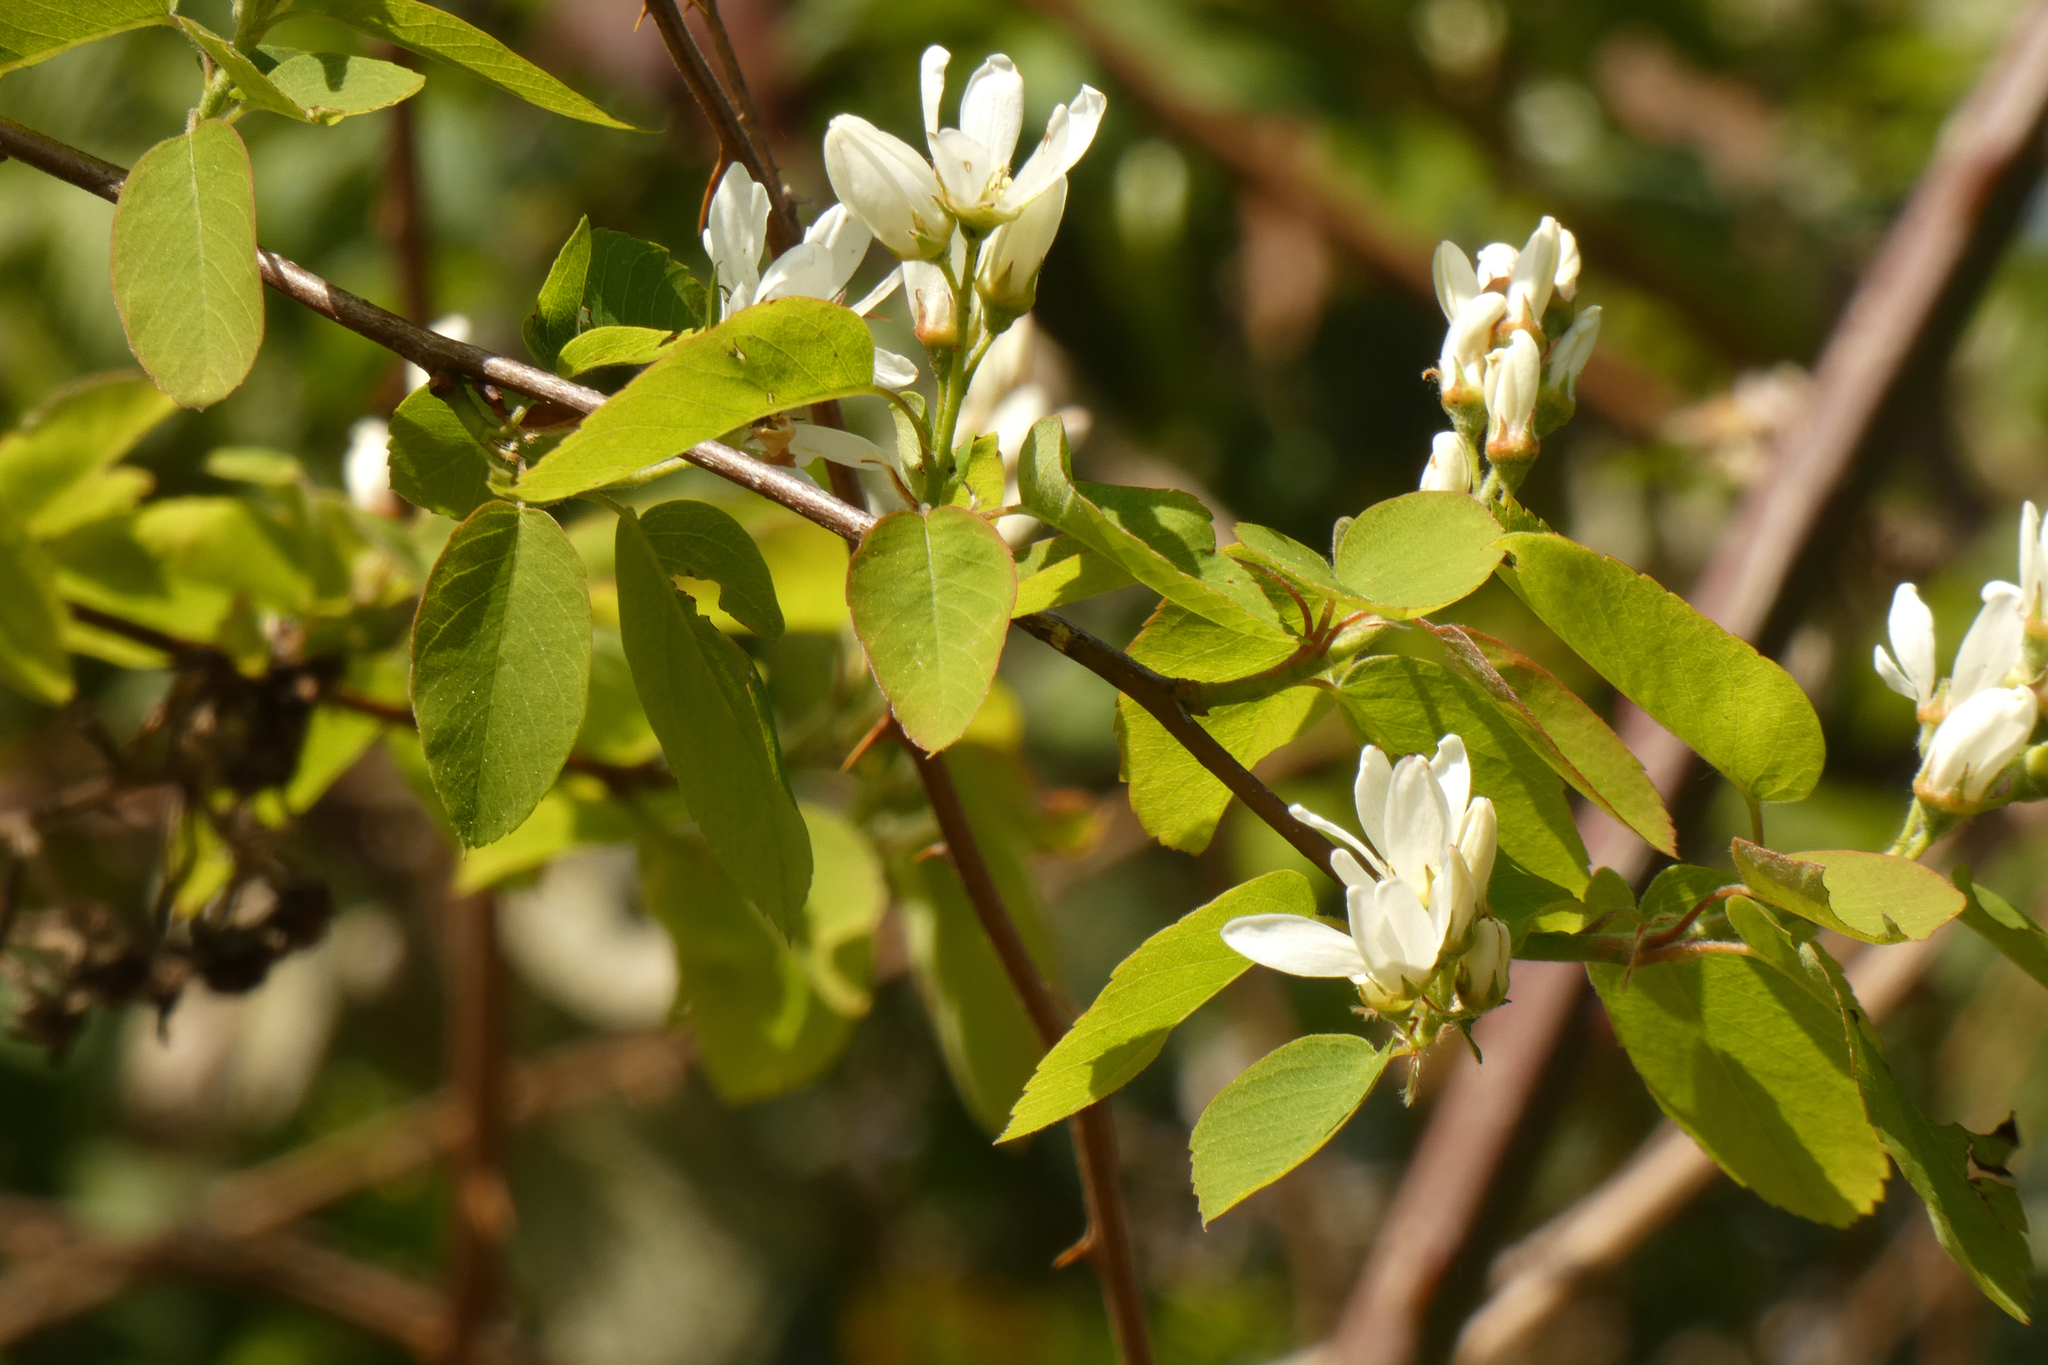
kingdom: Plantae
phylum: Tracheophyta
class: Magnoliopsida
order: Rosales
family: Rosaceae
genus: Amelanchier
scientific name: Amelanchier alnifolia
